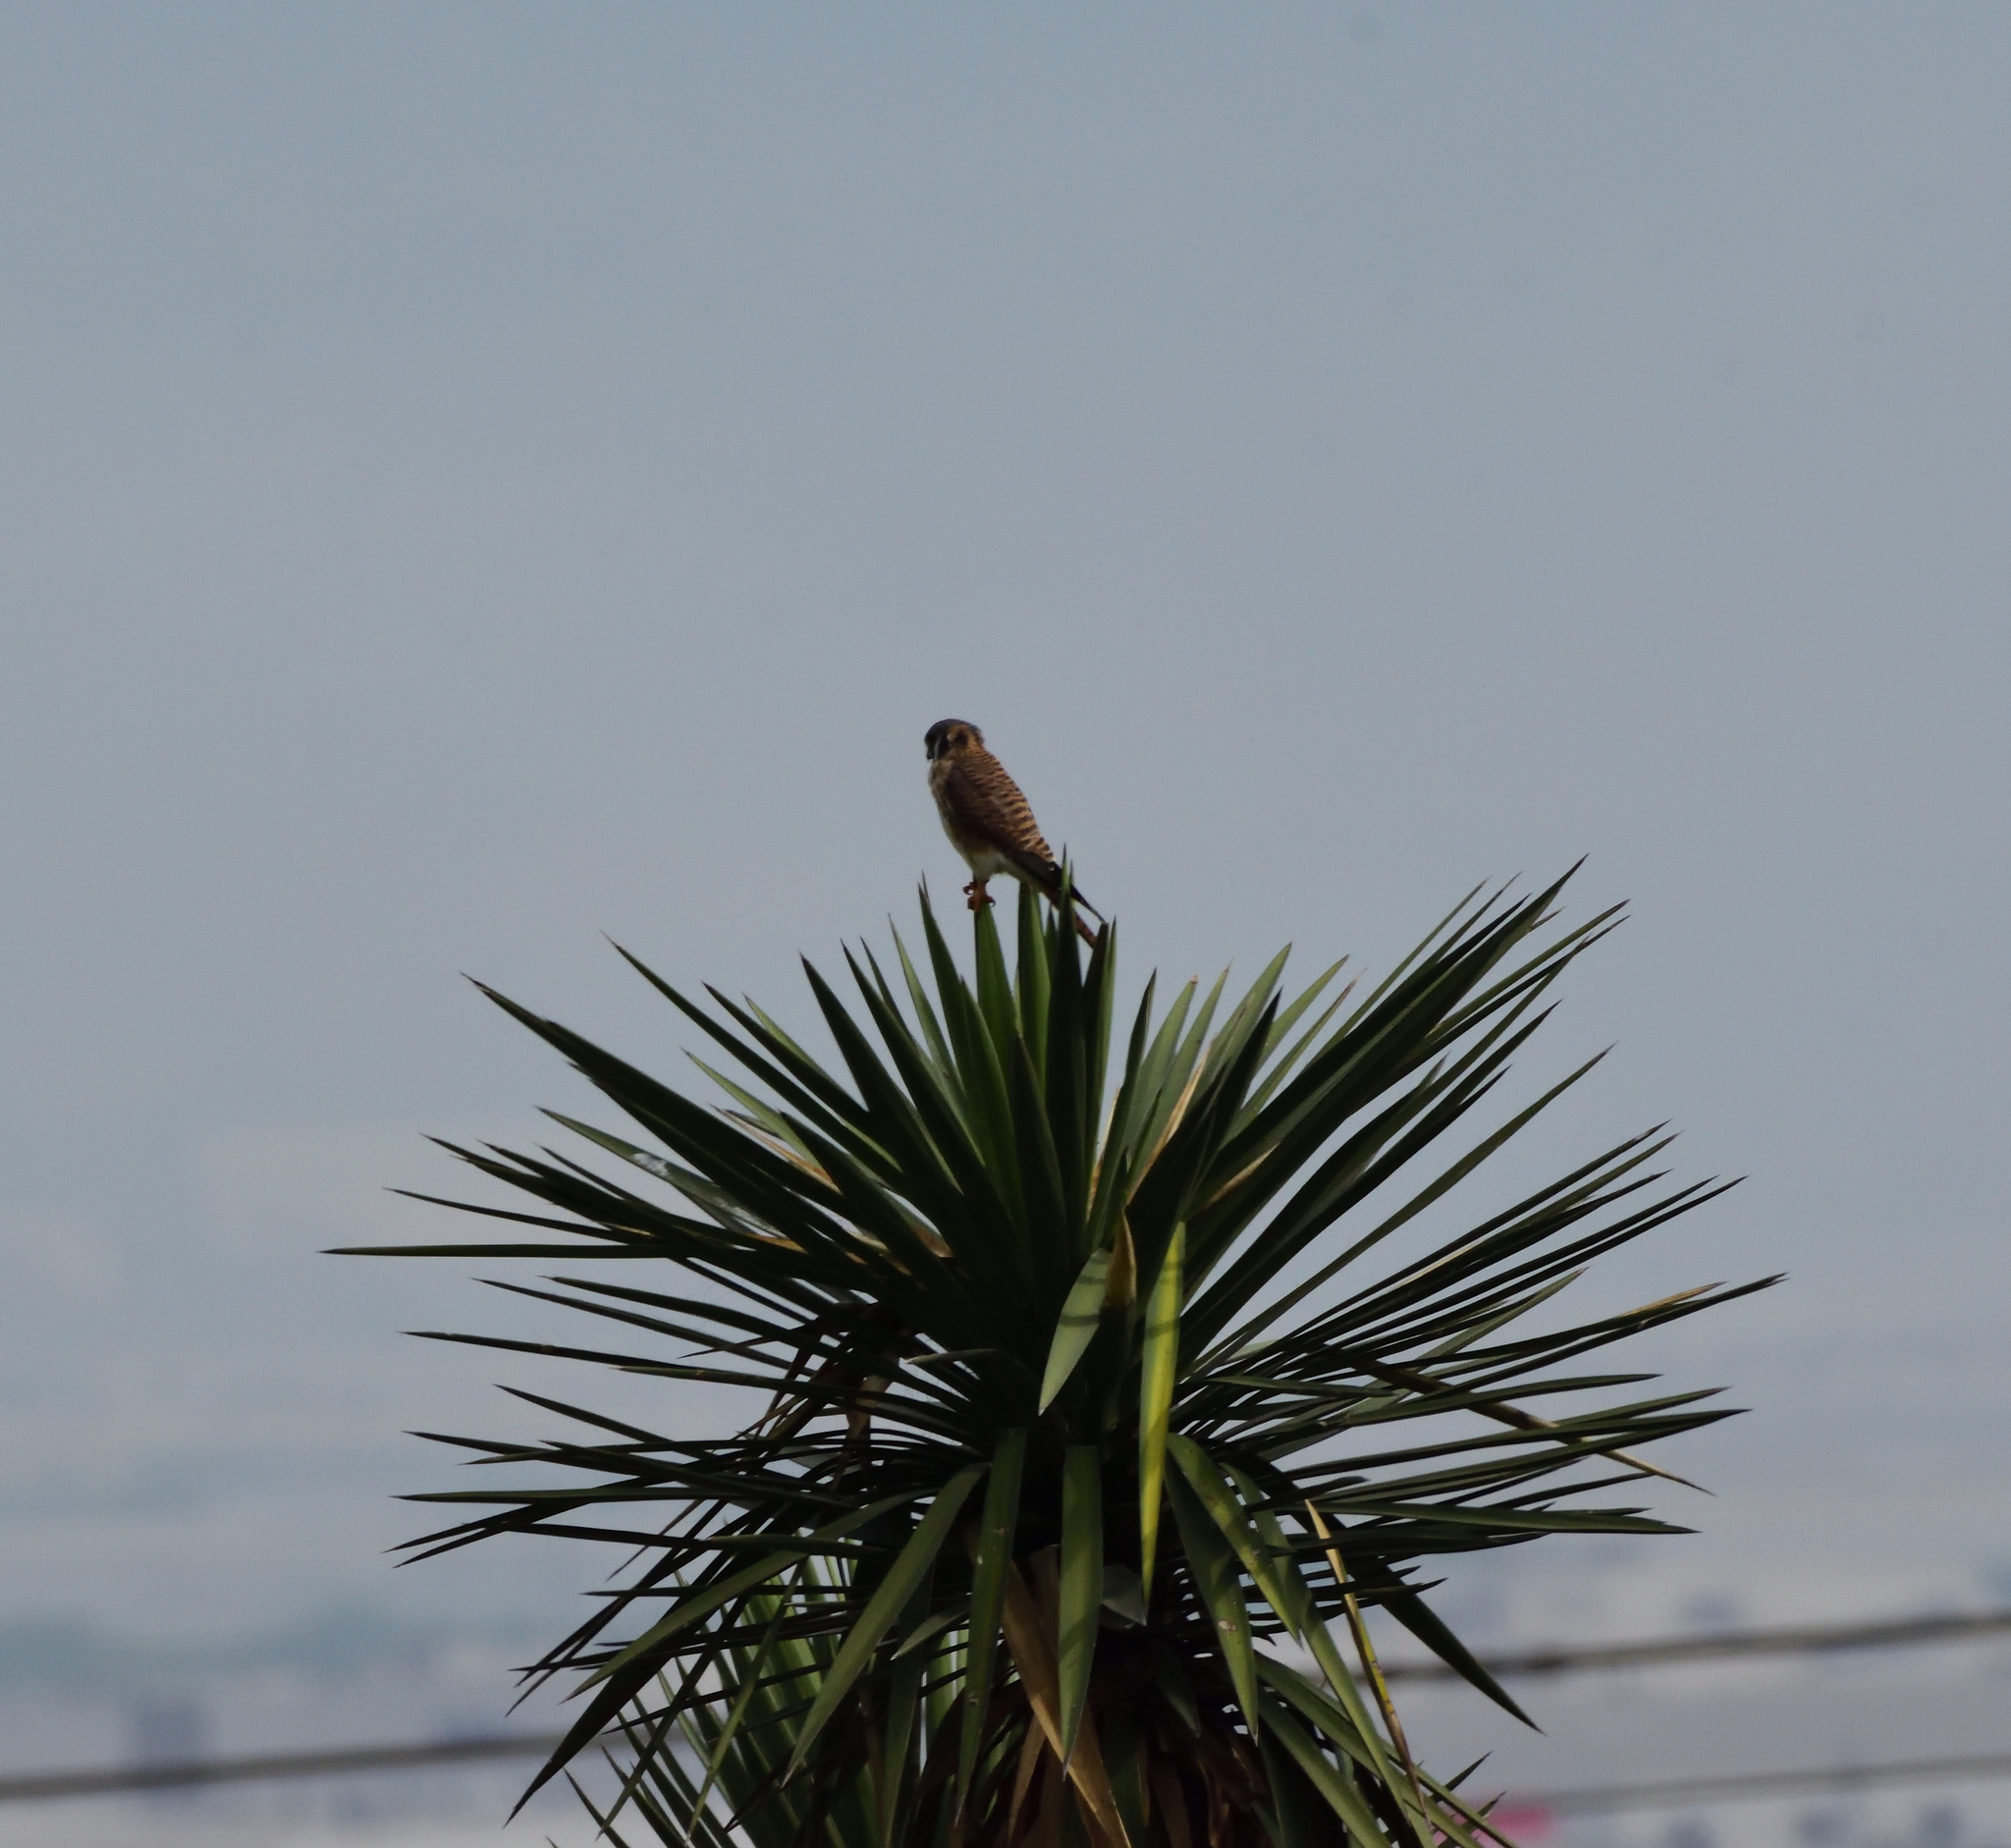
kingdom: Animalia
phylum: Chordata
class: Aves
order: Falconiformes
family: Falconidae
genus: Falco
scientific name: Falco sparverius
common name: American kestrel
